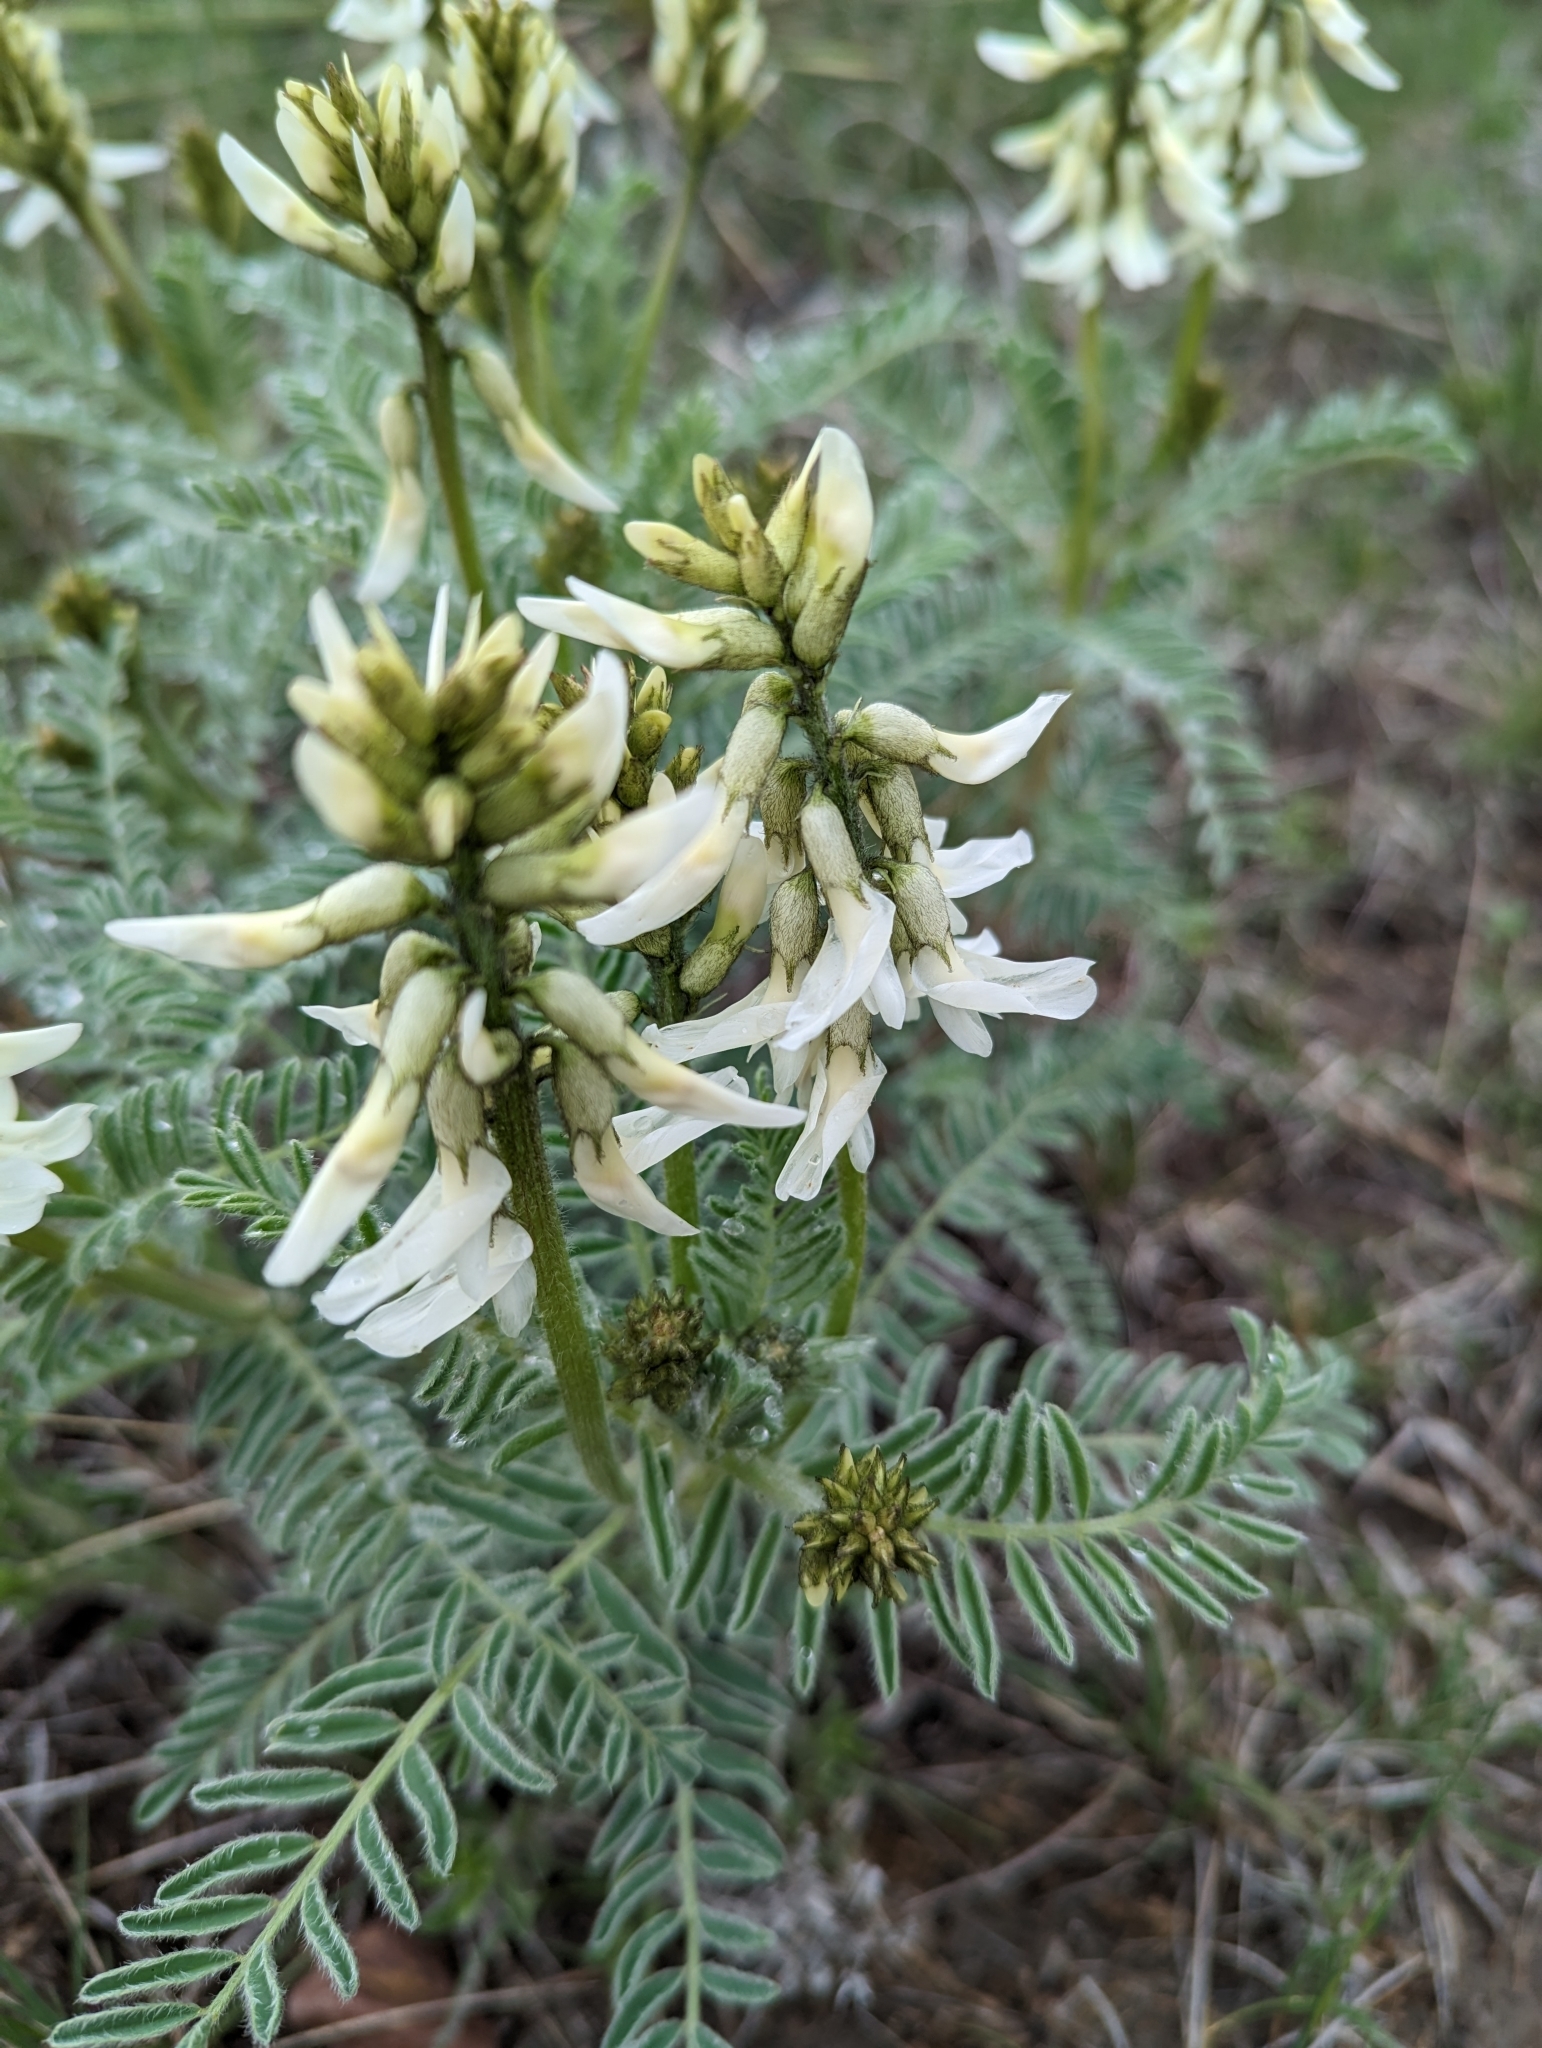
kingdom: Plantae
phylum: Tracheophyta
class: Magnoliopsida
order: Fabales
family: Fabaceae
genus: Astragalus
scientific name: Astragalus drummondii
